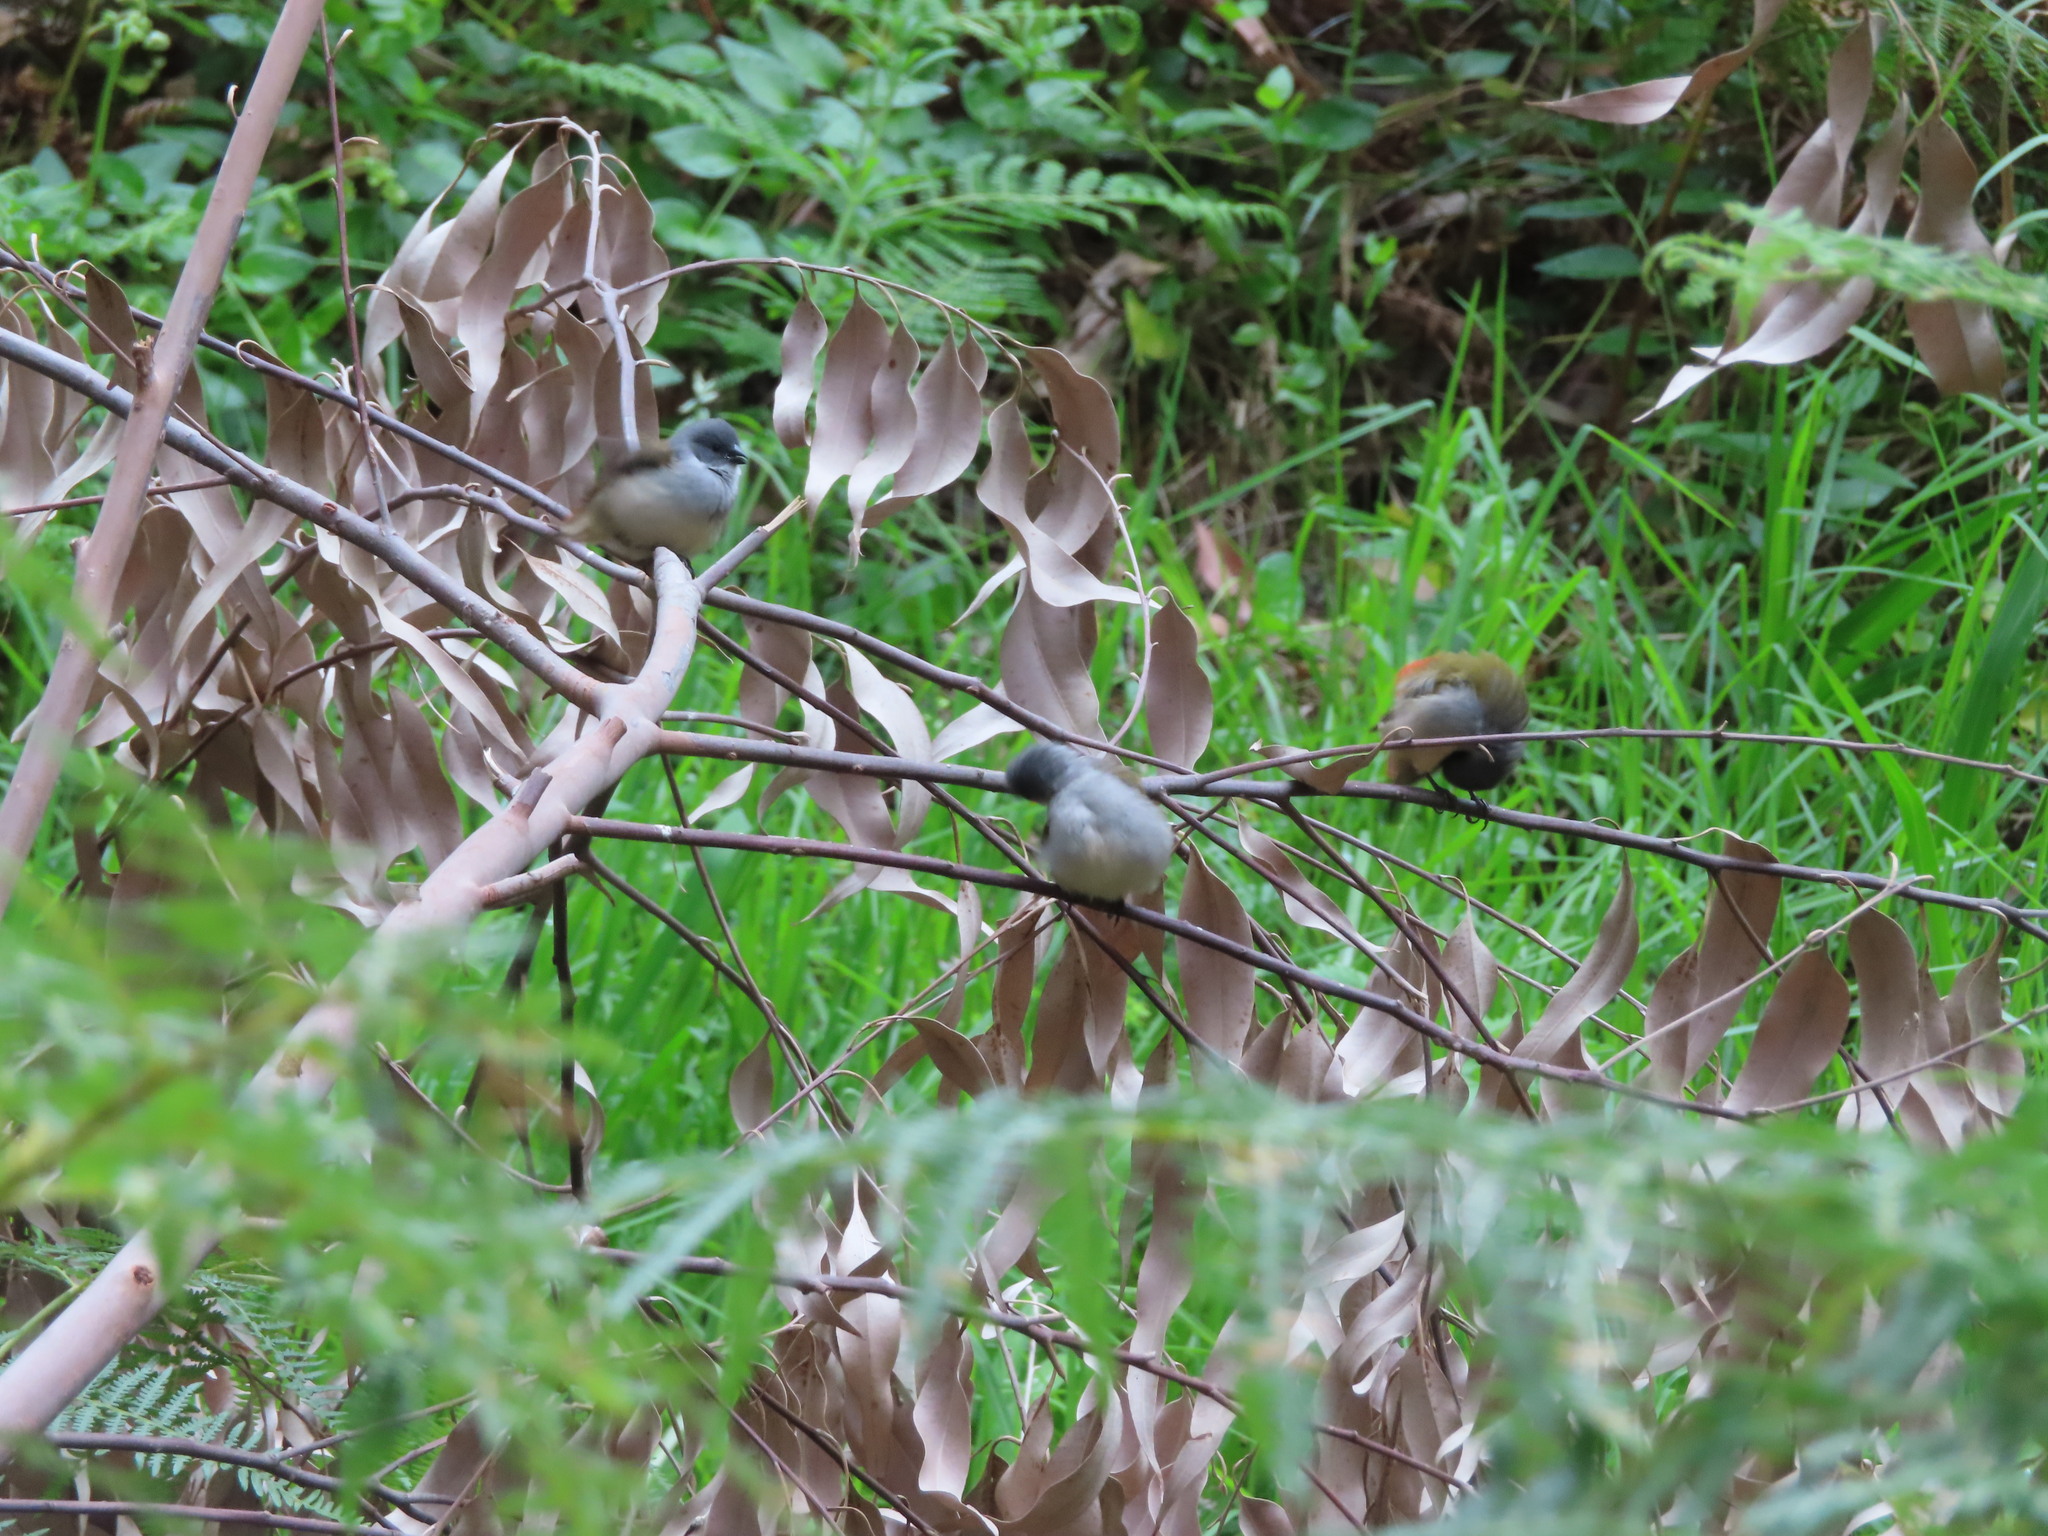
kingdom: Animalia
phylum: Chordata
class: Aves
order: Passeriformes
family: Estrildidae
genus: Coccopygia
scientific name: Coccopygia melanotis
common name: Swee waxbill
